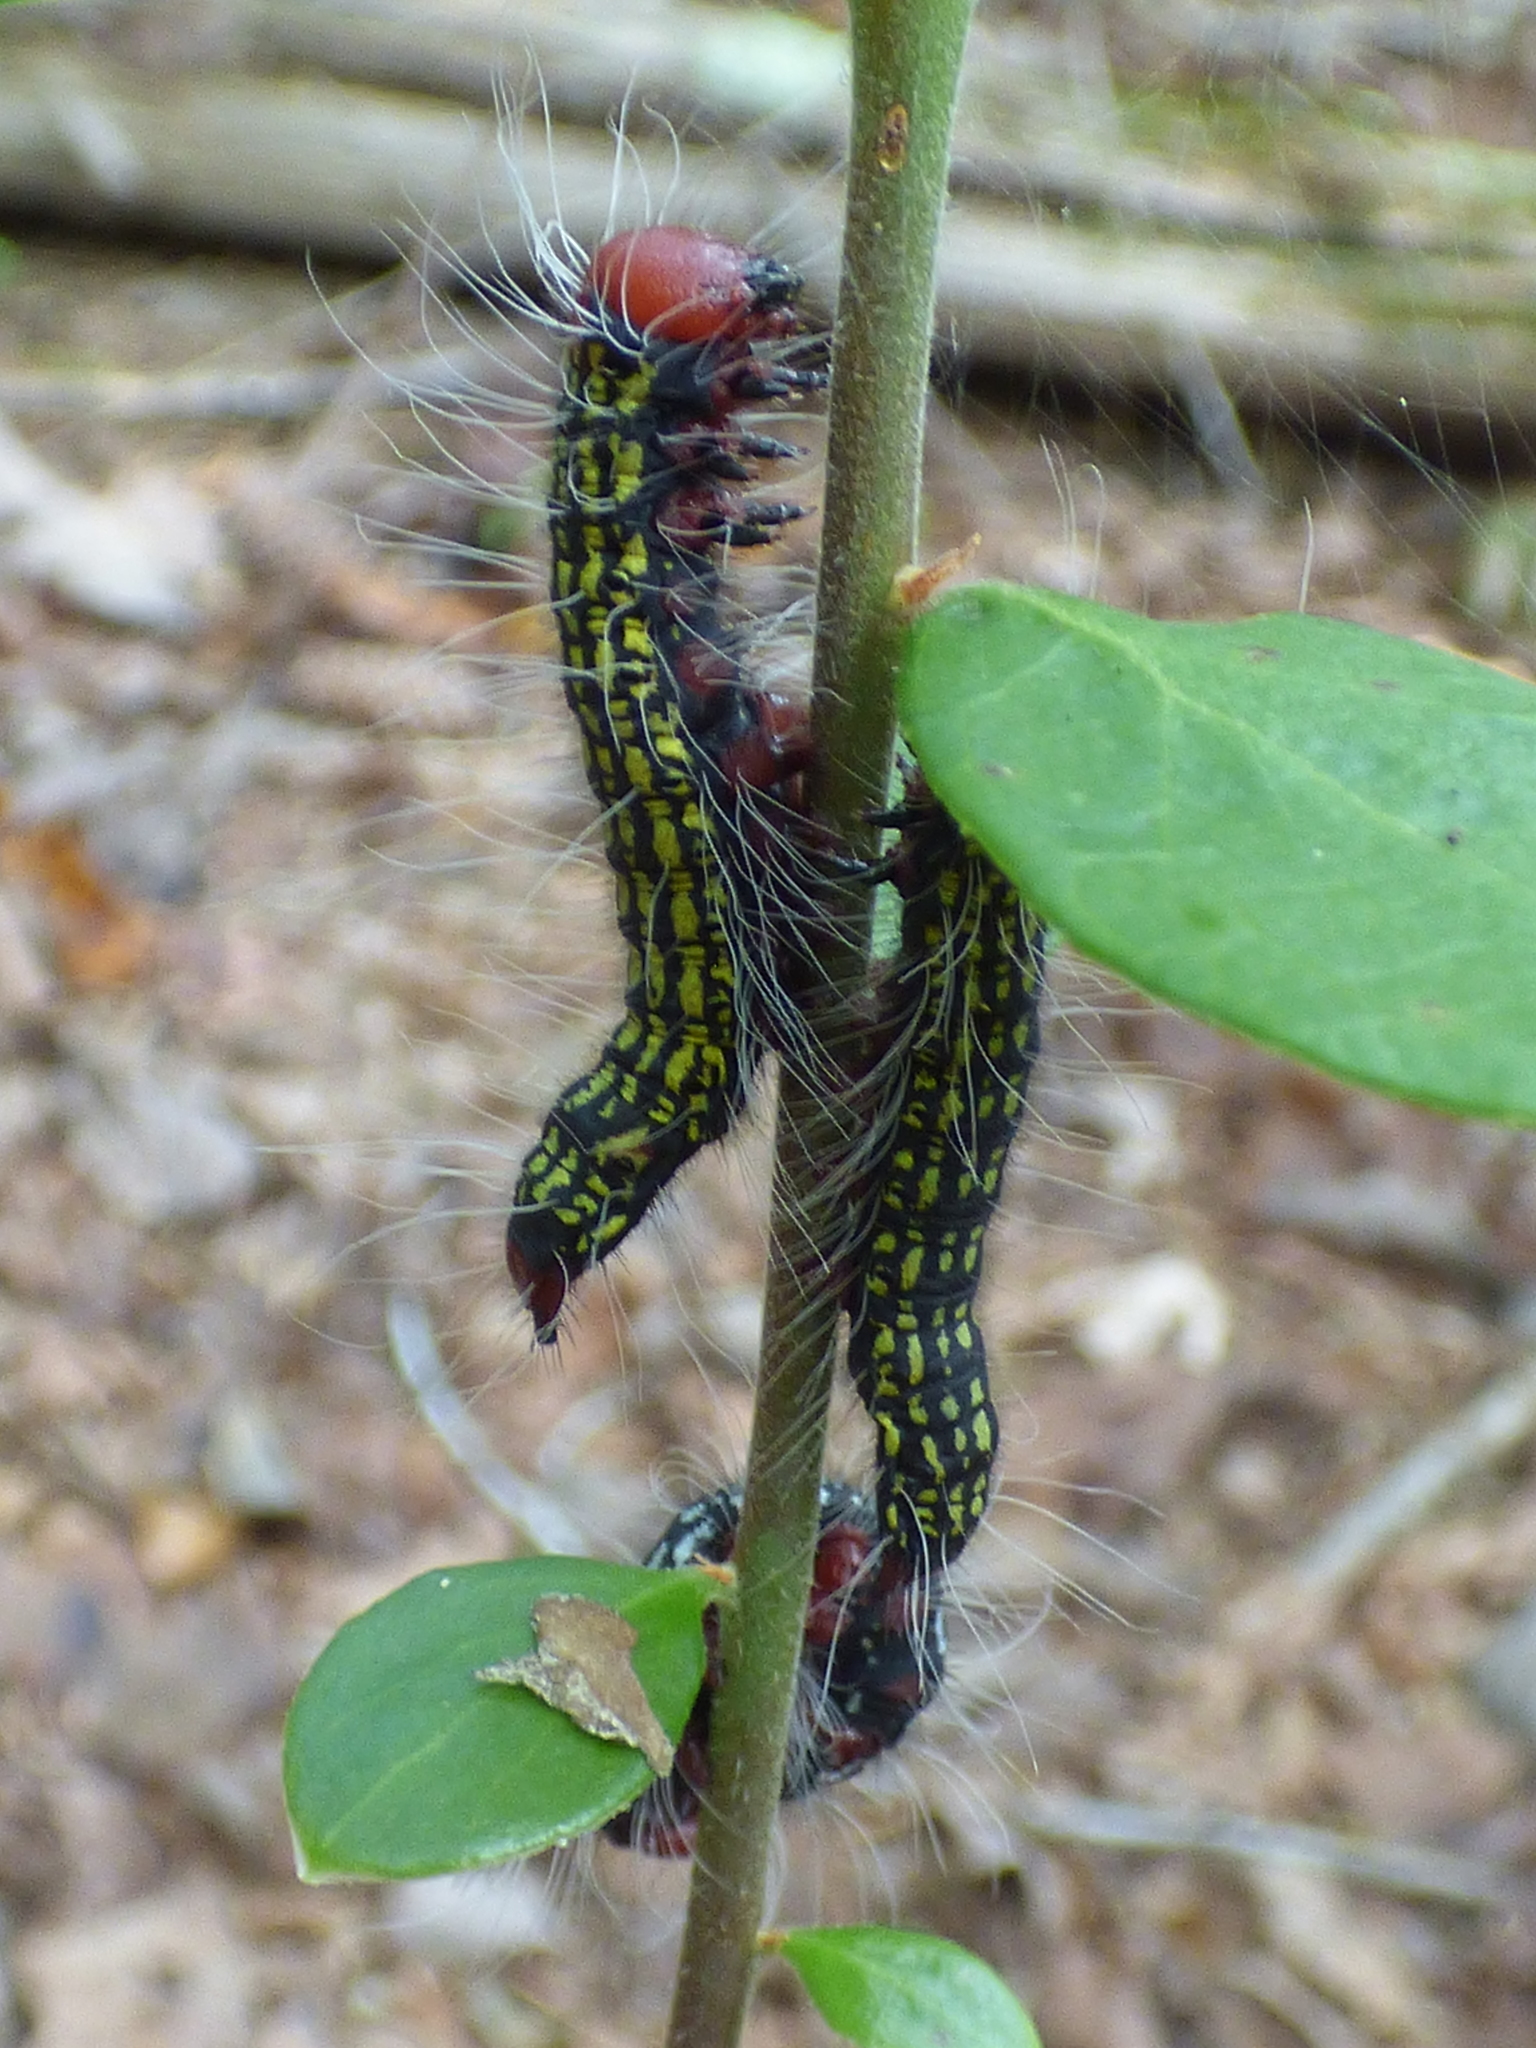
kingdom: Animalia
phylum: Arthropoda
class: Insecta
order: Lepidoptera
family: Notodontidae
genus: Datana
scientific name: Datana major
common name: Azalea caterpillar
